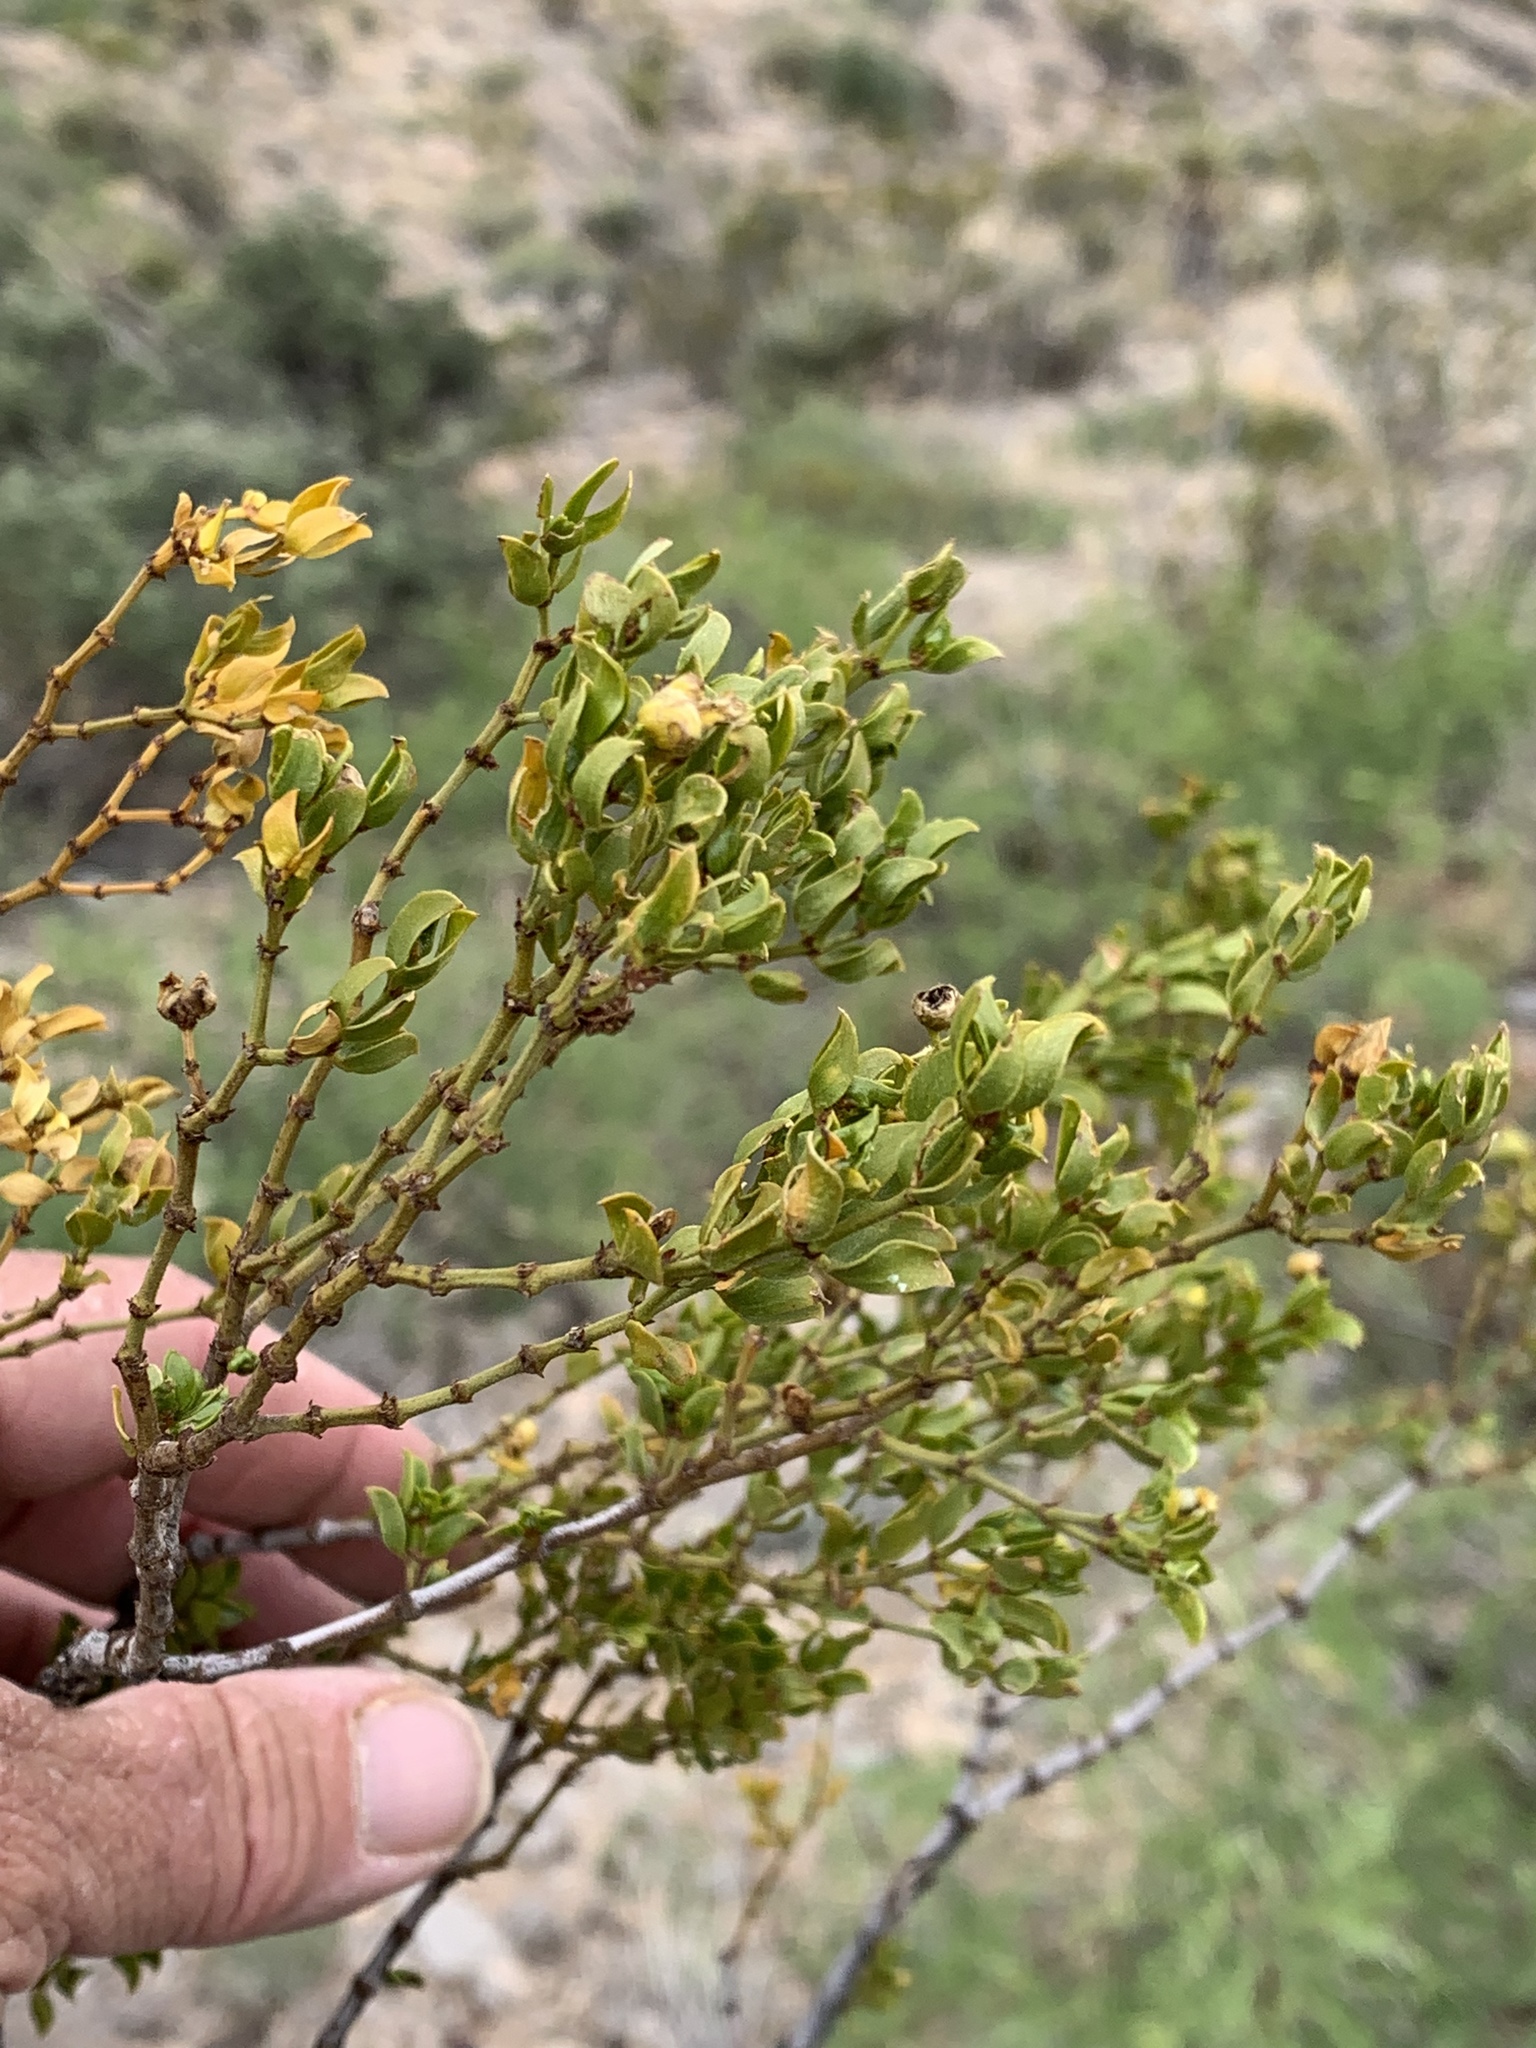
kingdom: Plantae
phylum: Tracheophyta
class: Magnoliopsida
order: Zygophyllales
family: Zygophyllaceae
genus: Larrea
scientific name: Larrea tridentata
